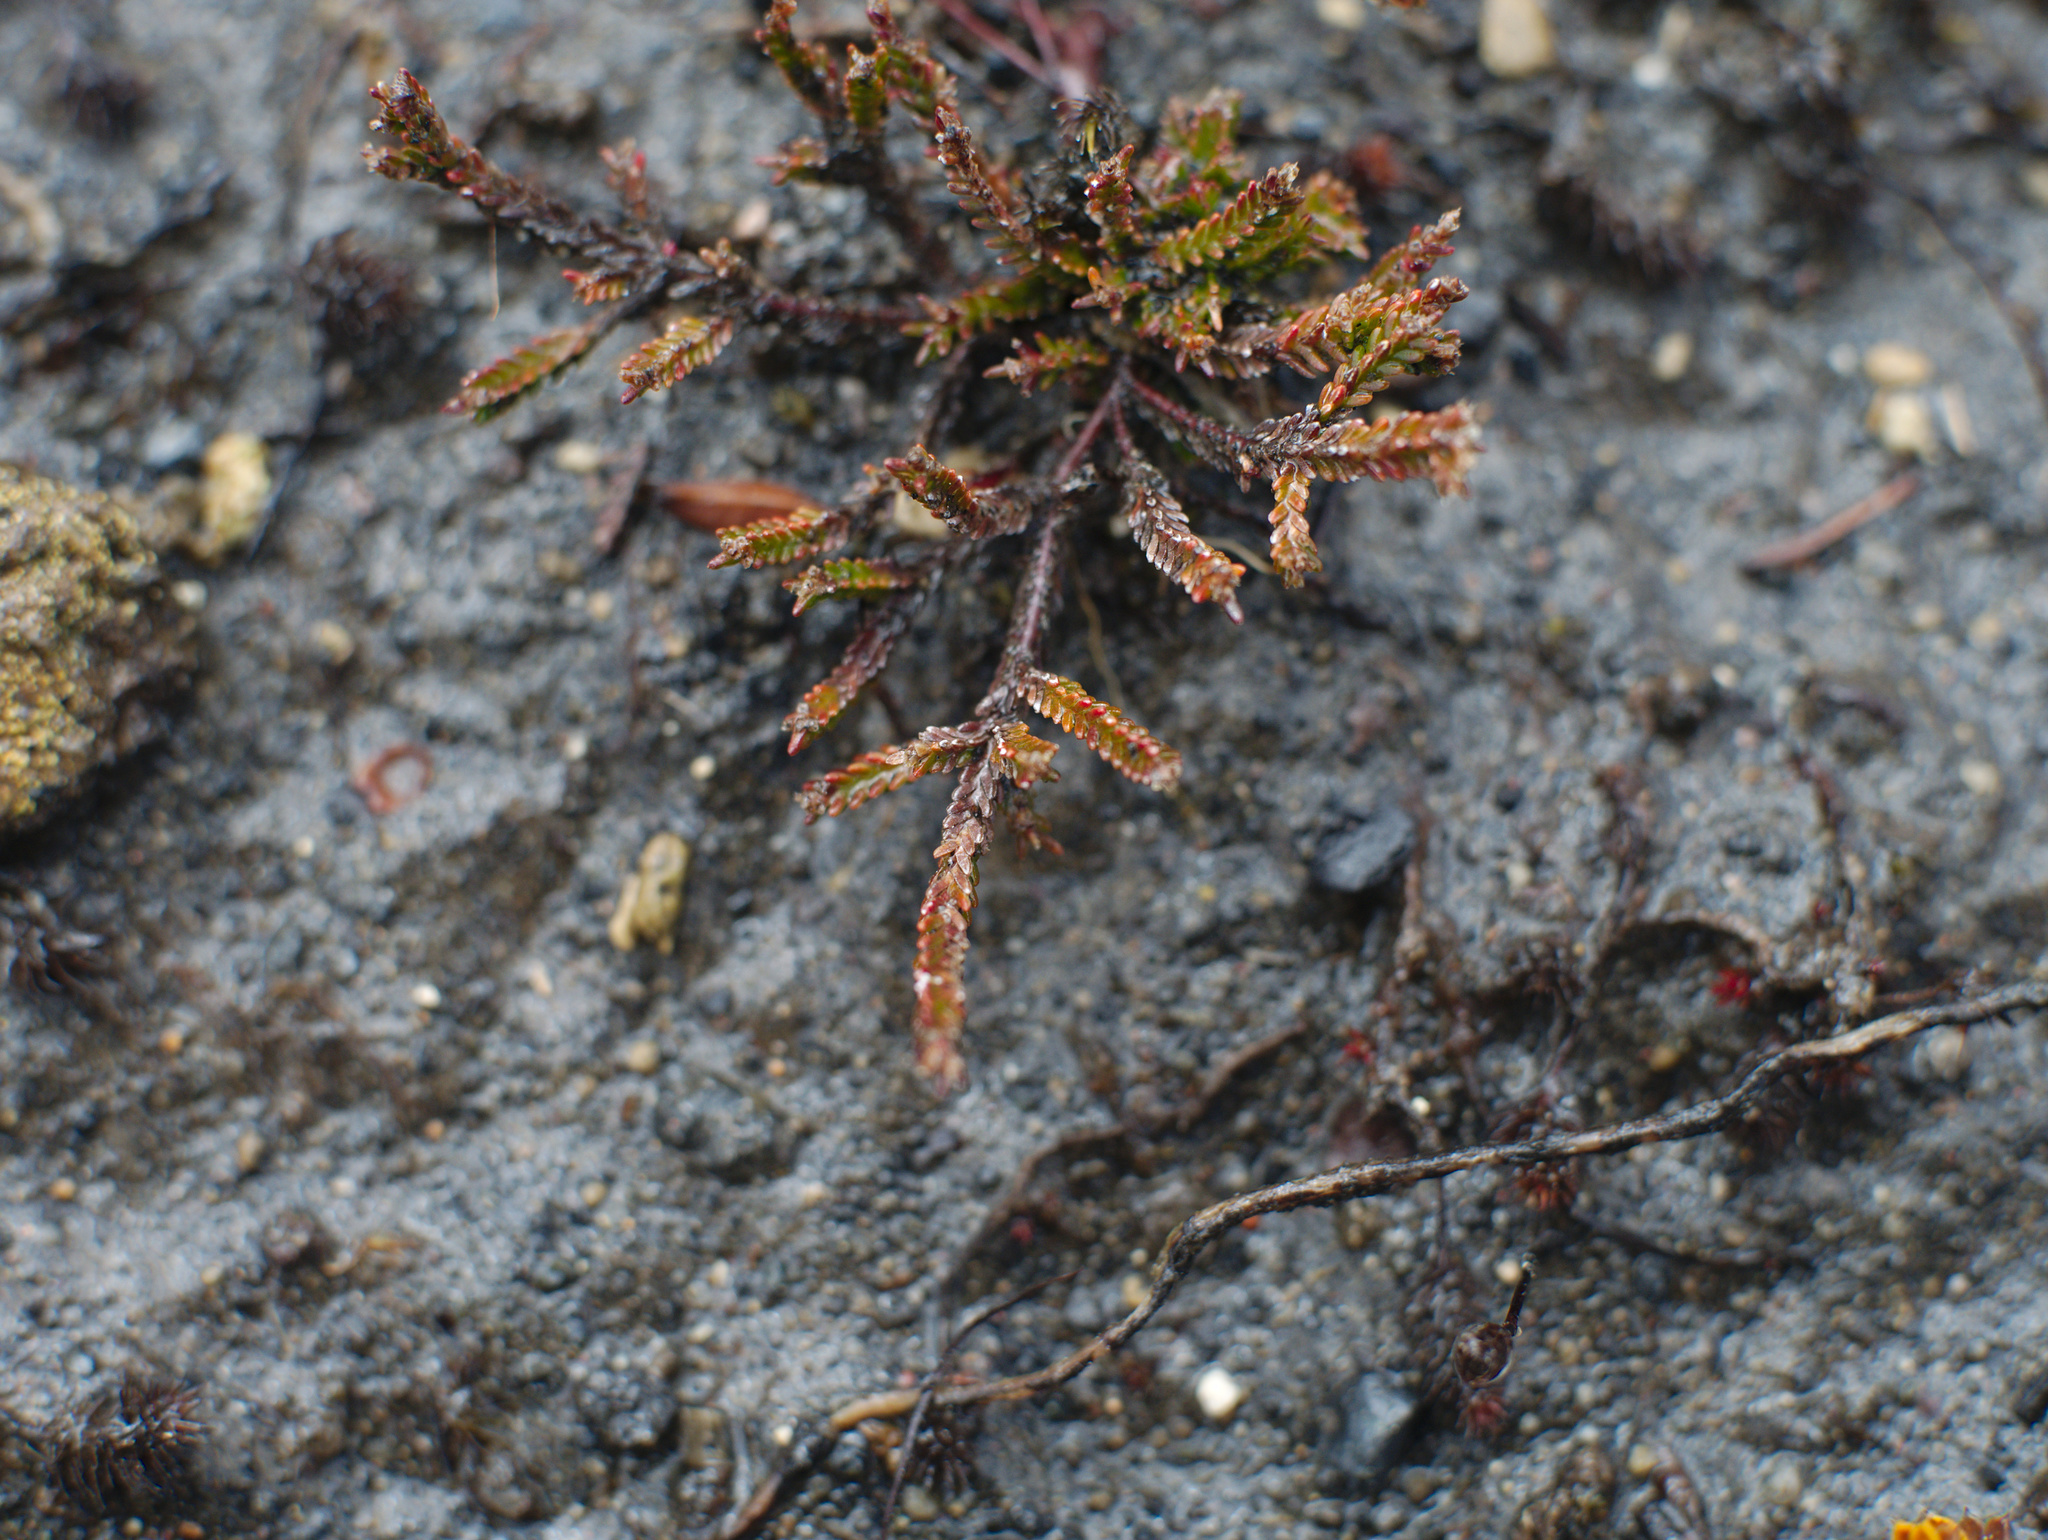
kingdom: Plantae
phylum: Tracheophyta
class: Magnoliopsida
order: Ericales
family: Ericaceae
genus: Calluna
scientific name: Calluna vulgaris
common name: Heather
